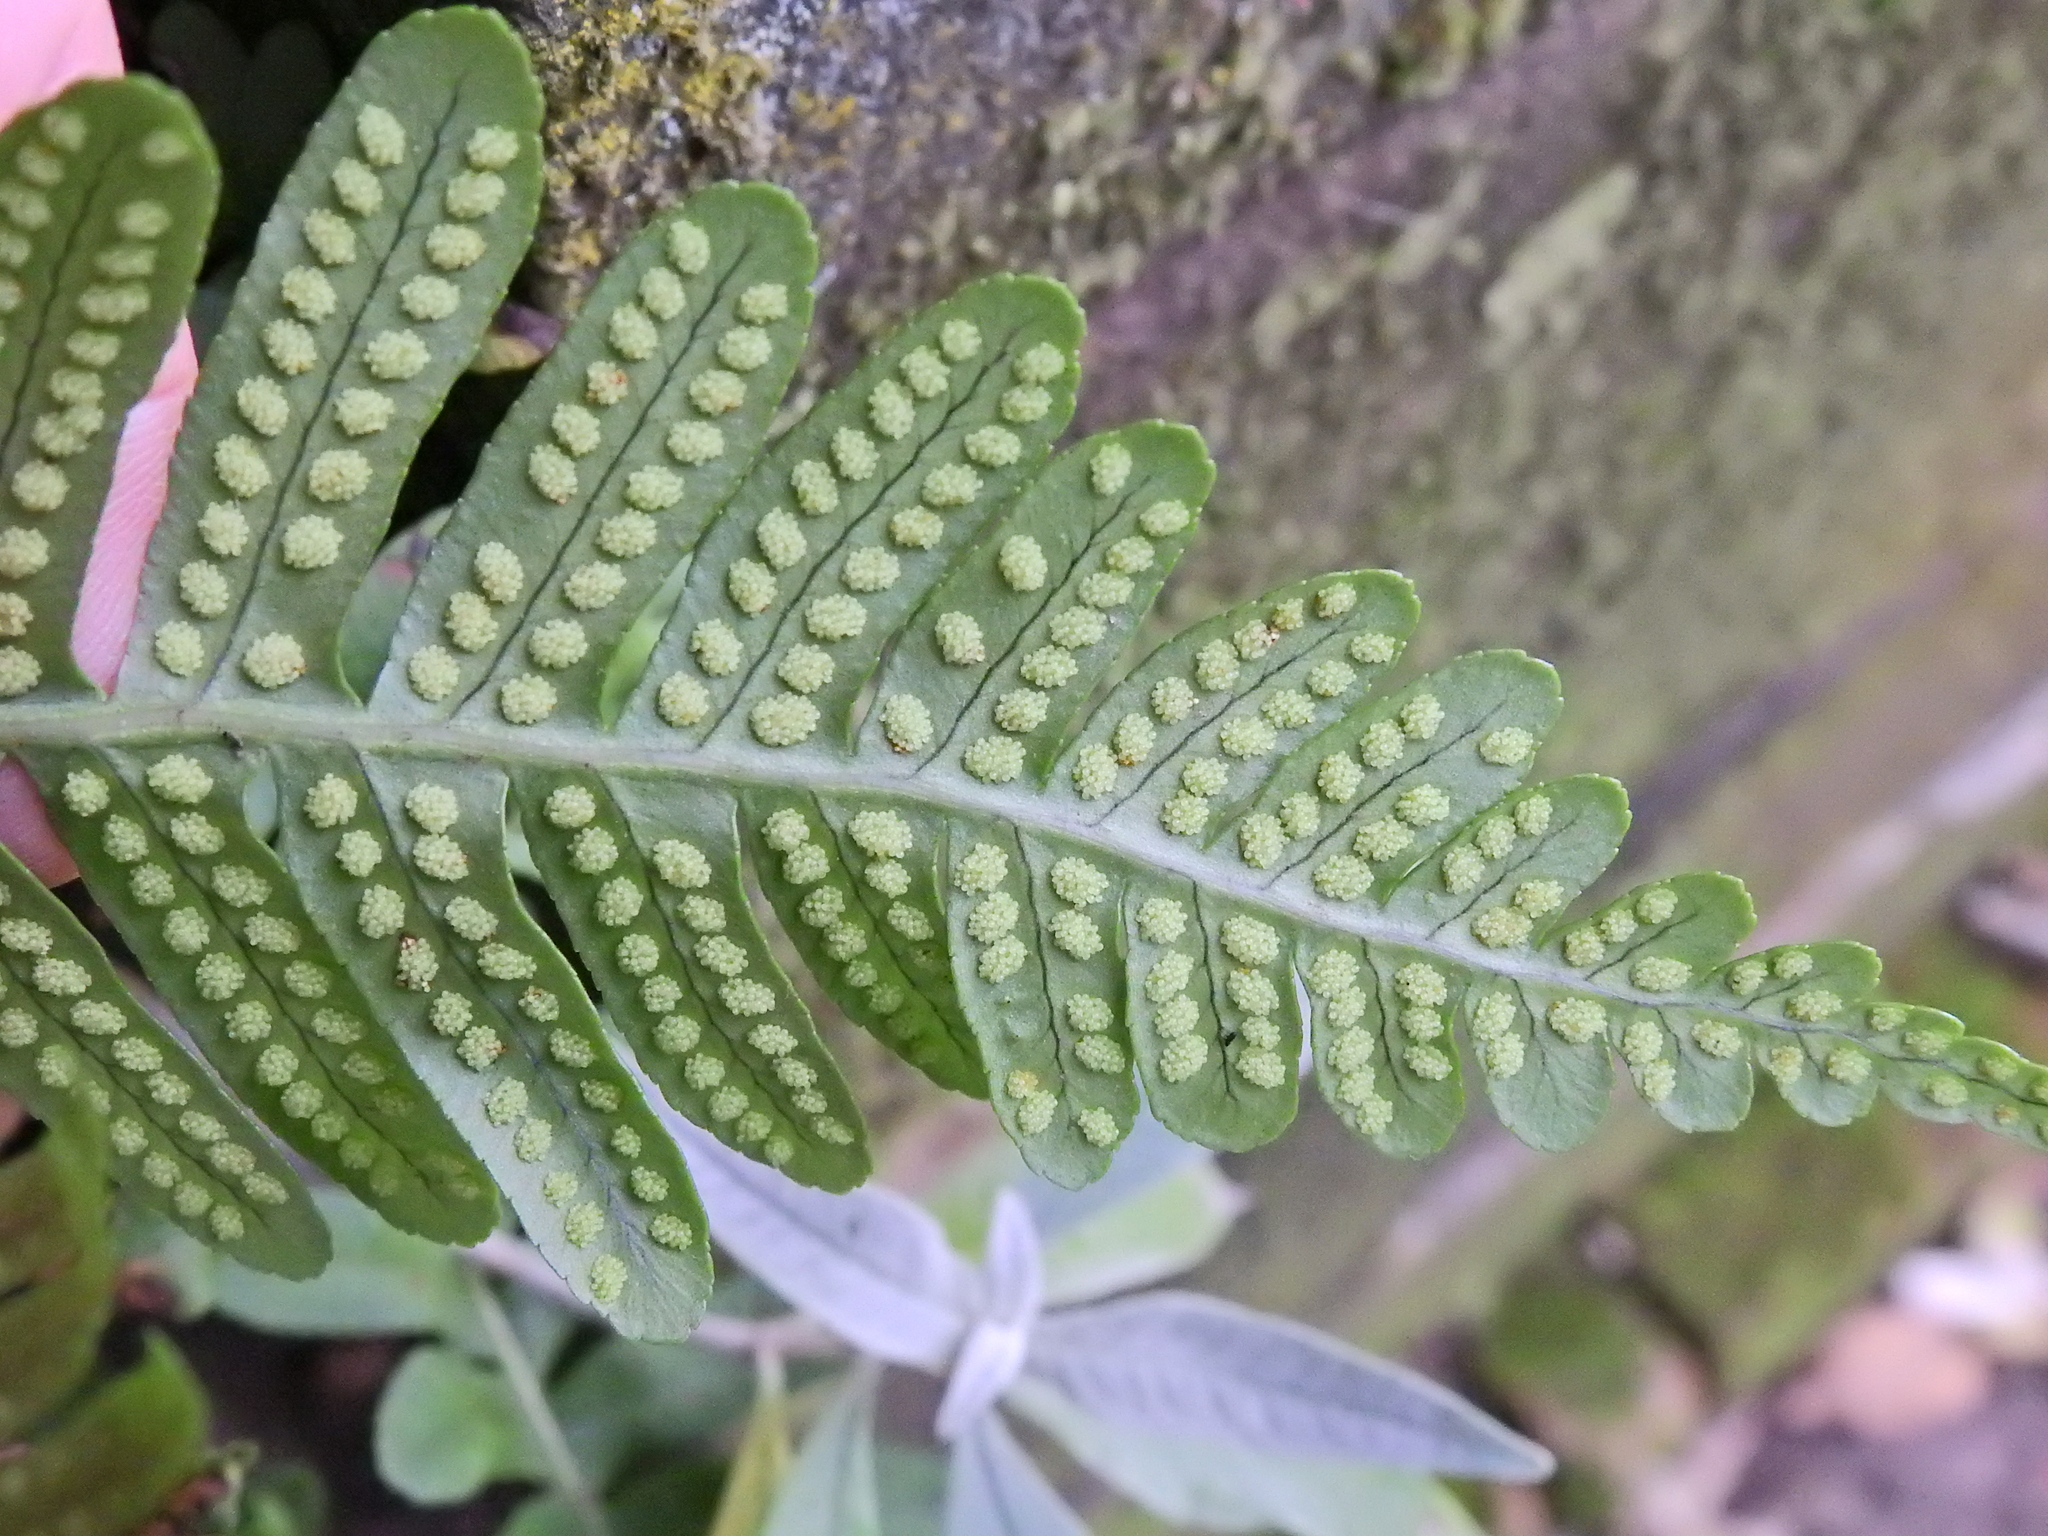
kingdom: Plantae
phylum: Tracheophyta
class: Polypodiopsida
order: Polypodiales
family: Polypodiaceae
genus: Polypodium
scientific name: Polypodium vulgare
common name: Common polypody
